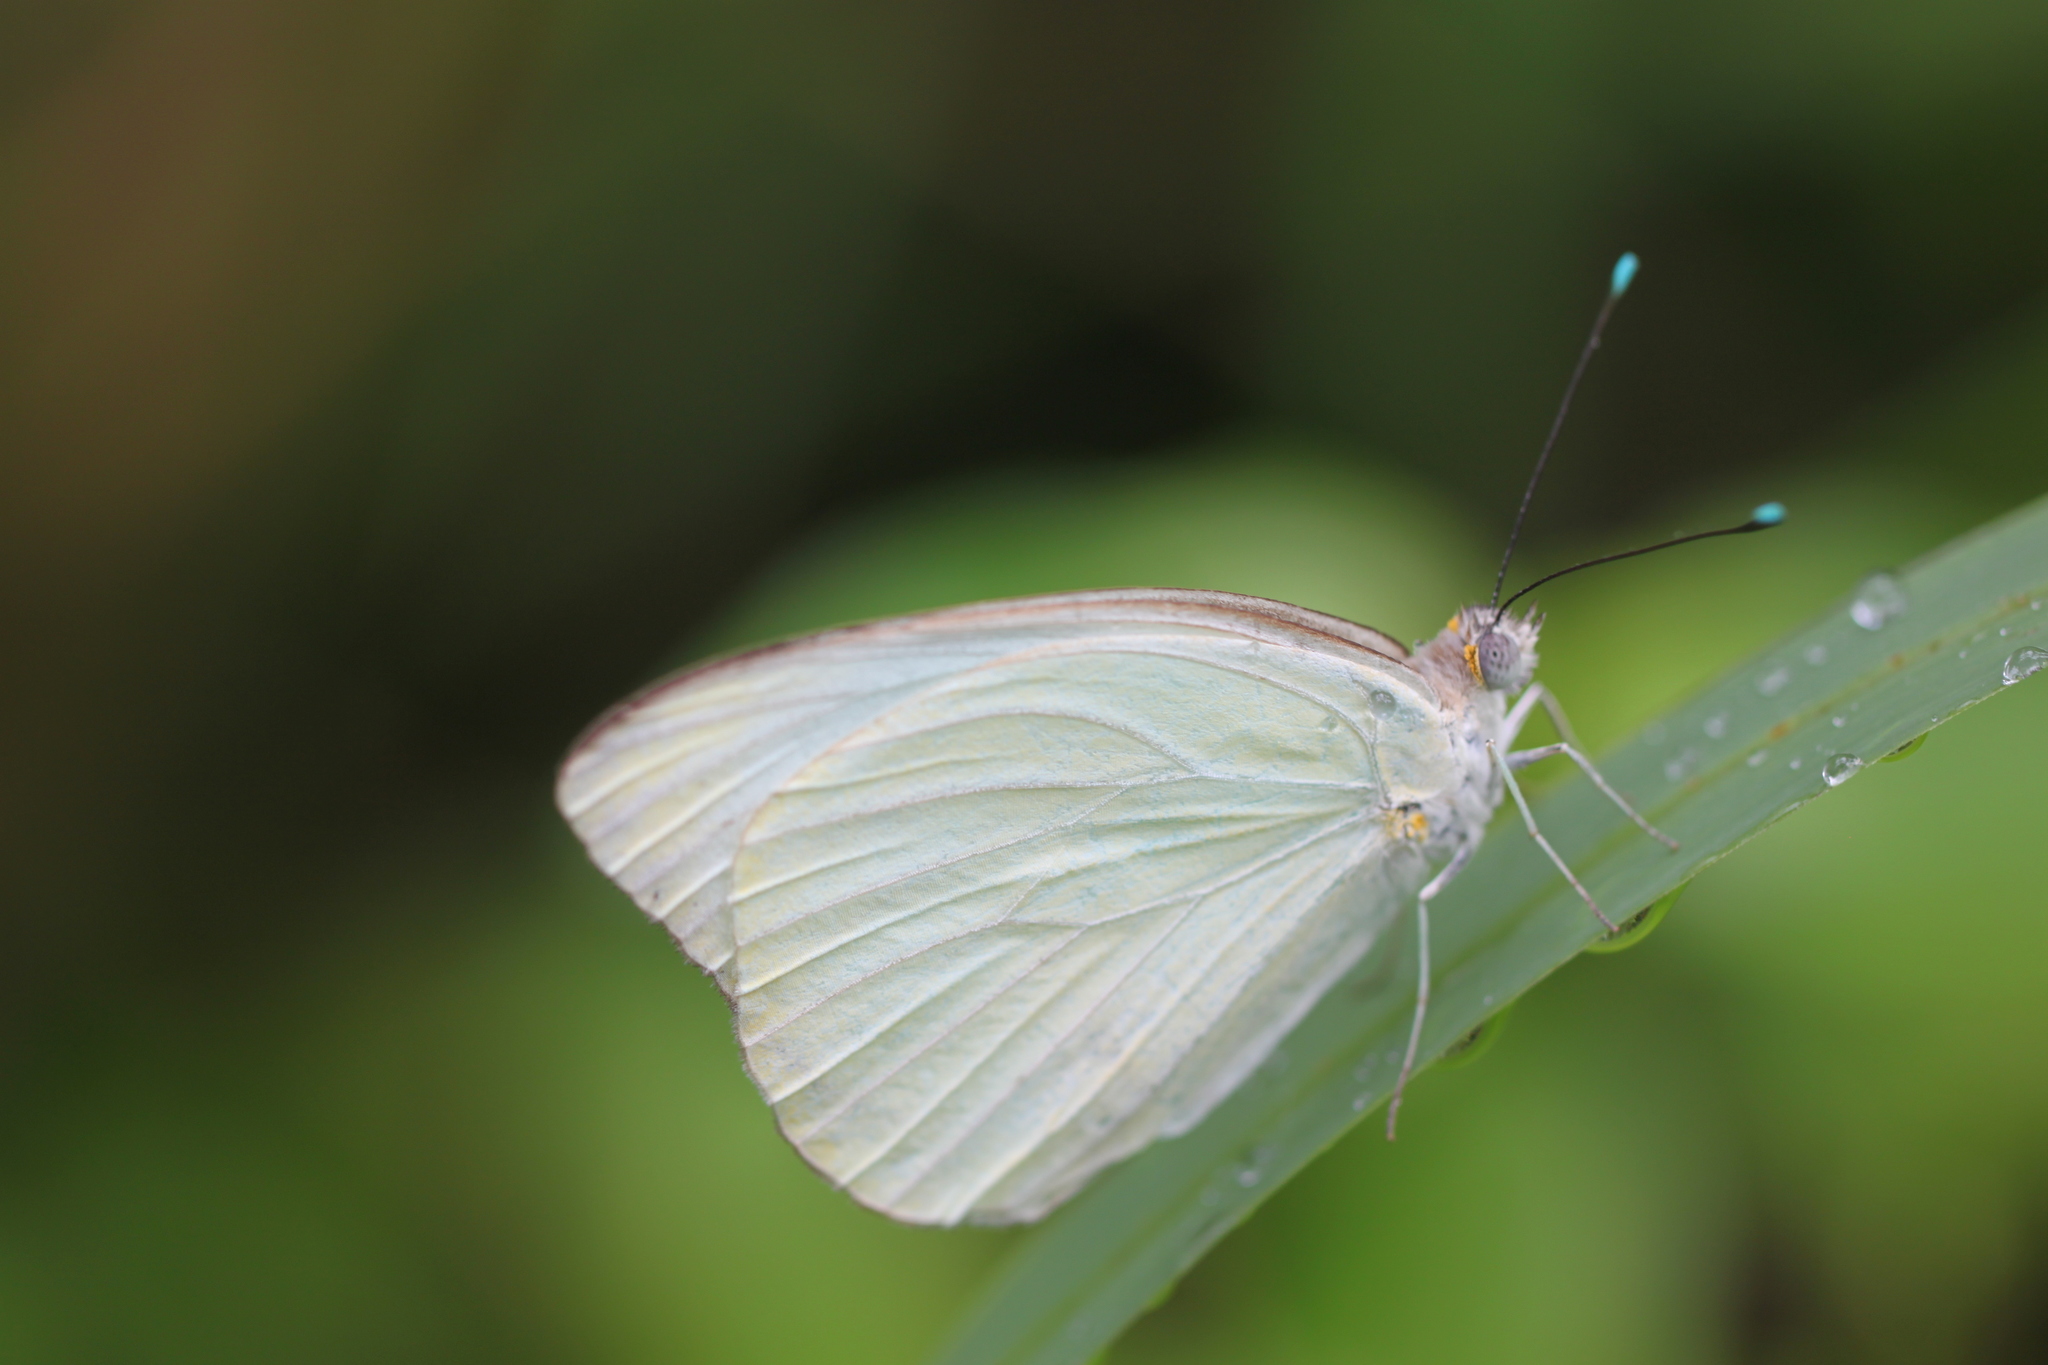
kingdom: Animalia
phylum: Arthropoda
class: Insecta
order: Lepidoptera
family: Pieridae
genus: Ascia
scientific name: Ascia monuste
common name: Great southern white
